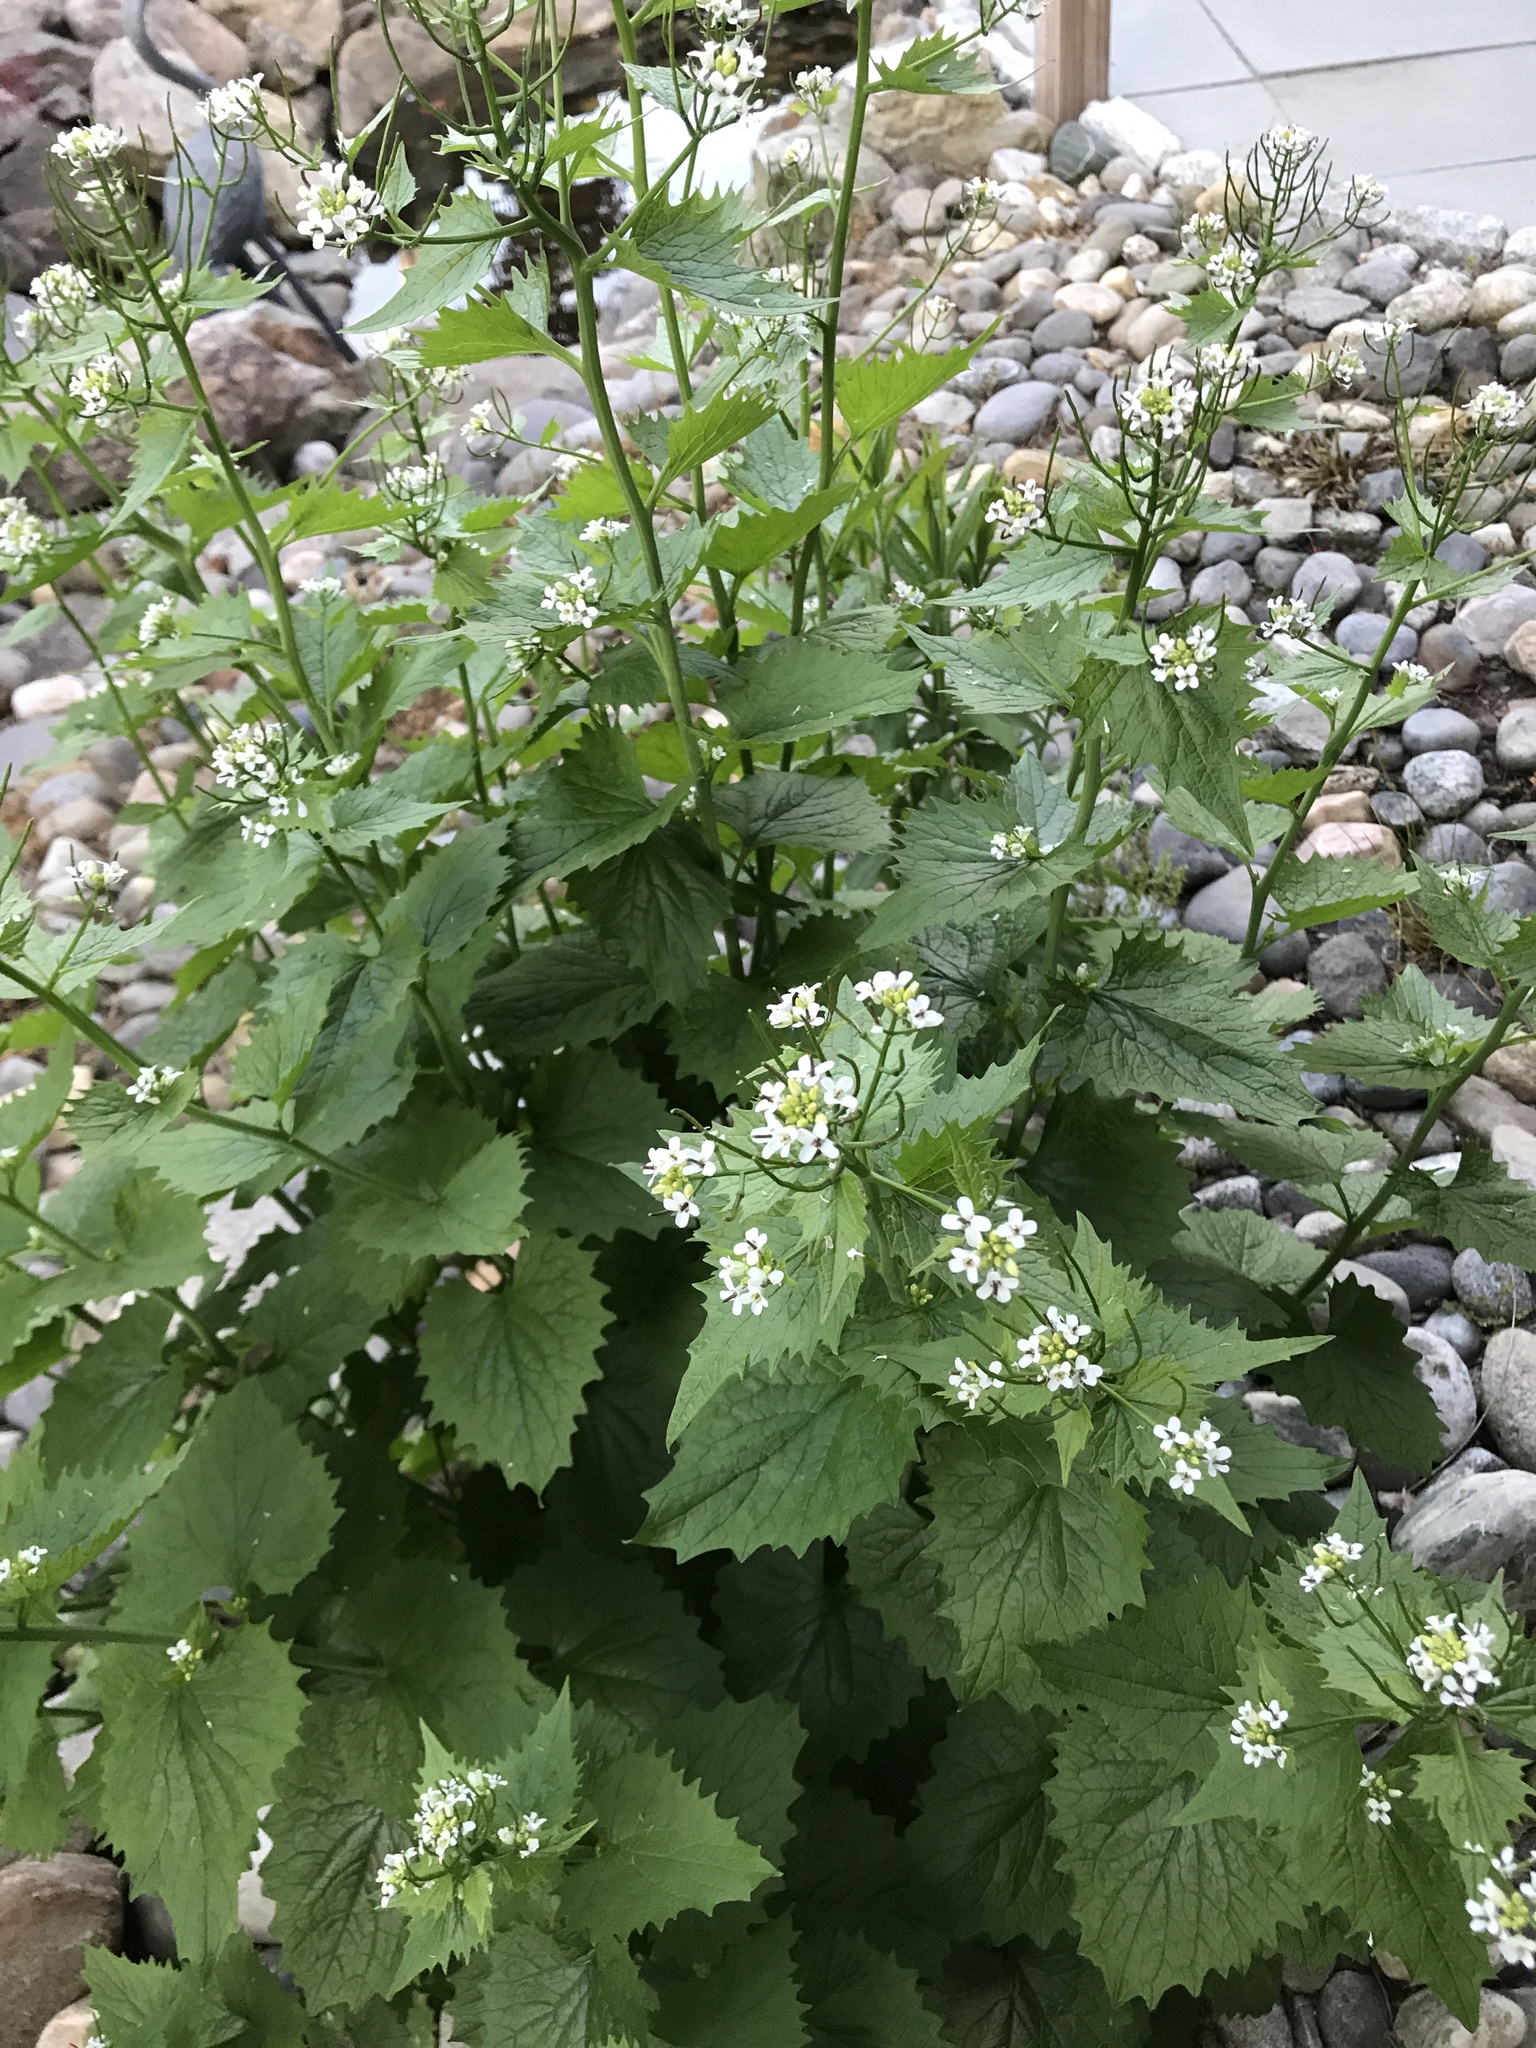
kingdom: Plantae
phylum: Tracheophyta
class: Magnoliopsida
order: Brassicales
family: Brassicaceae
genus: Alliaria
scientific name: Alliaria petiolata
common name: Garlic mustard
